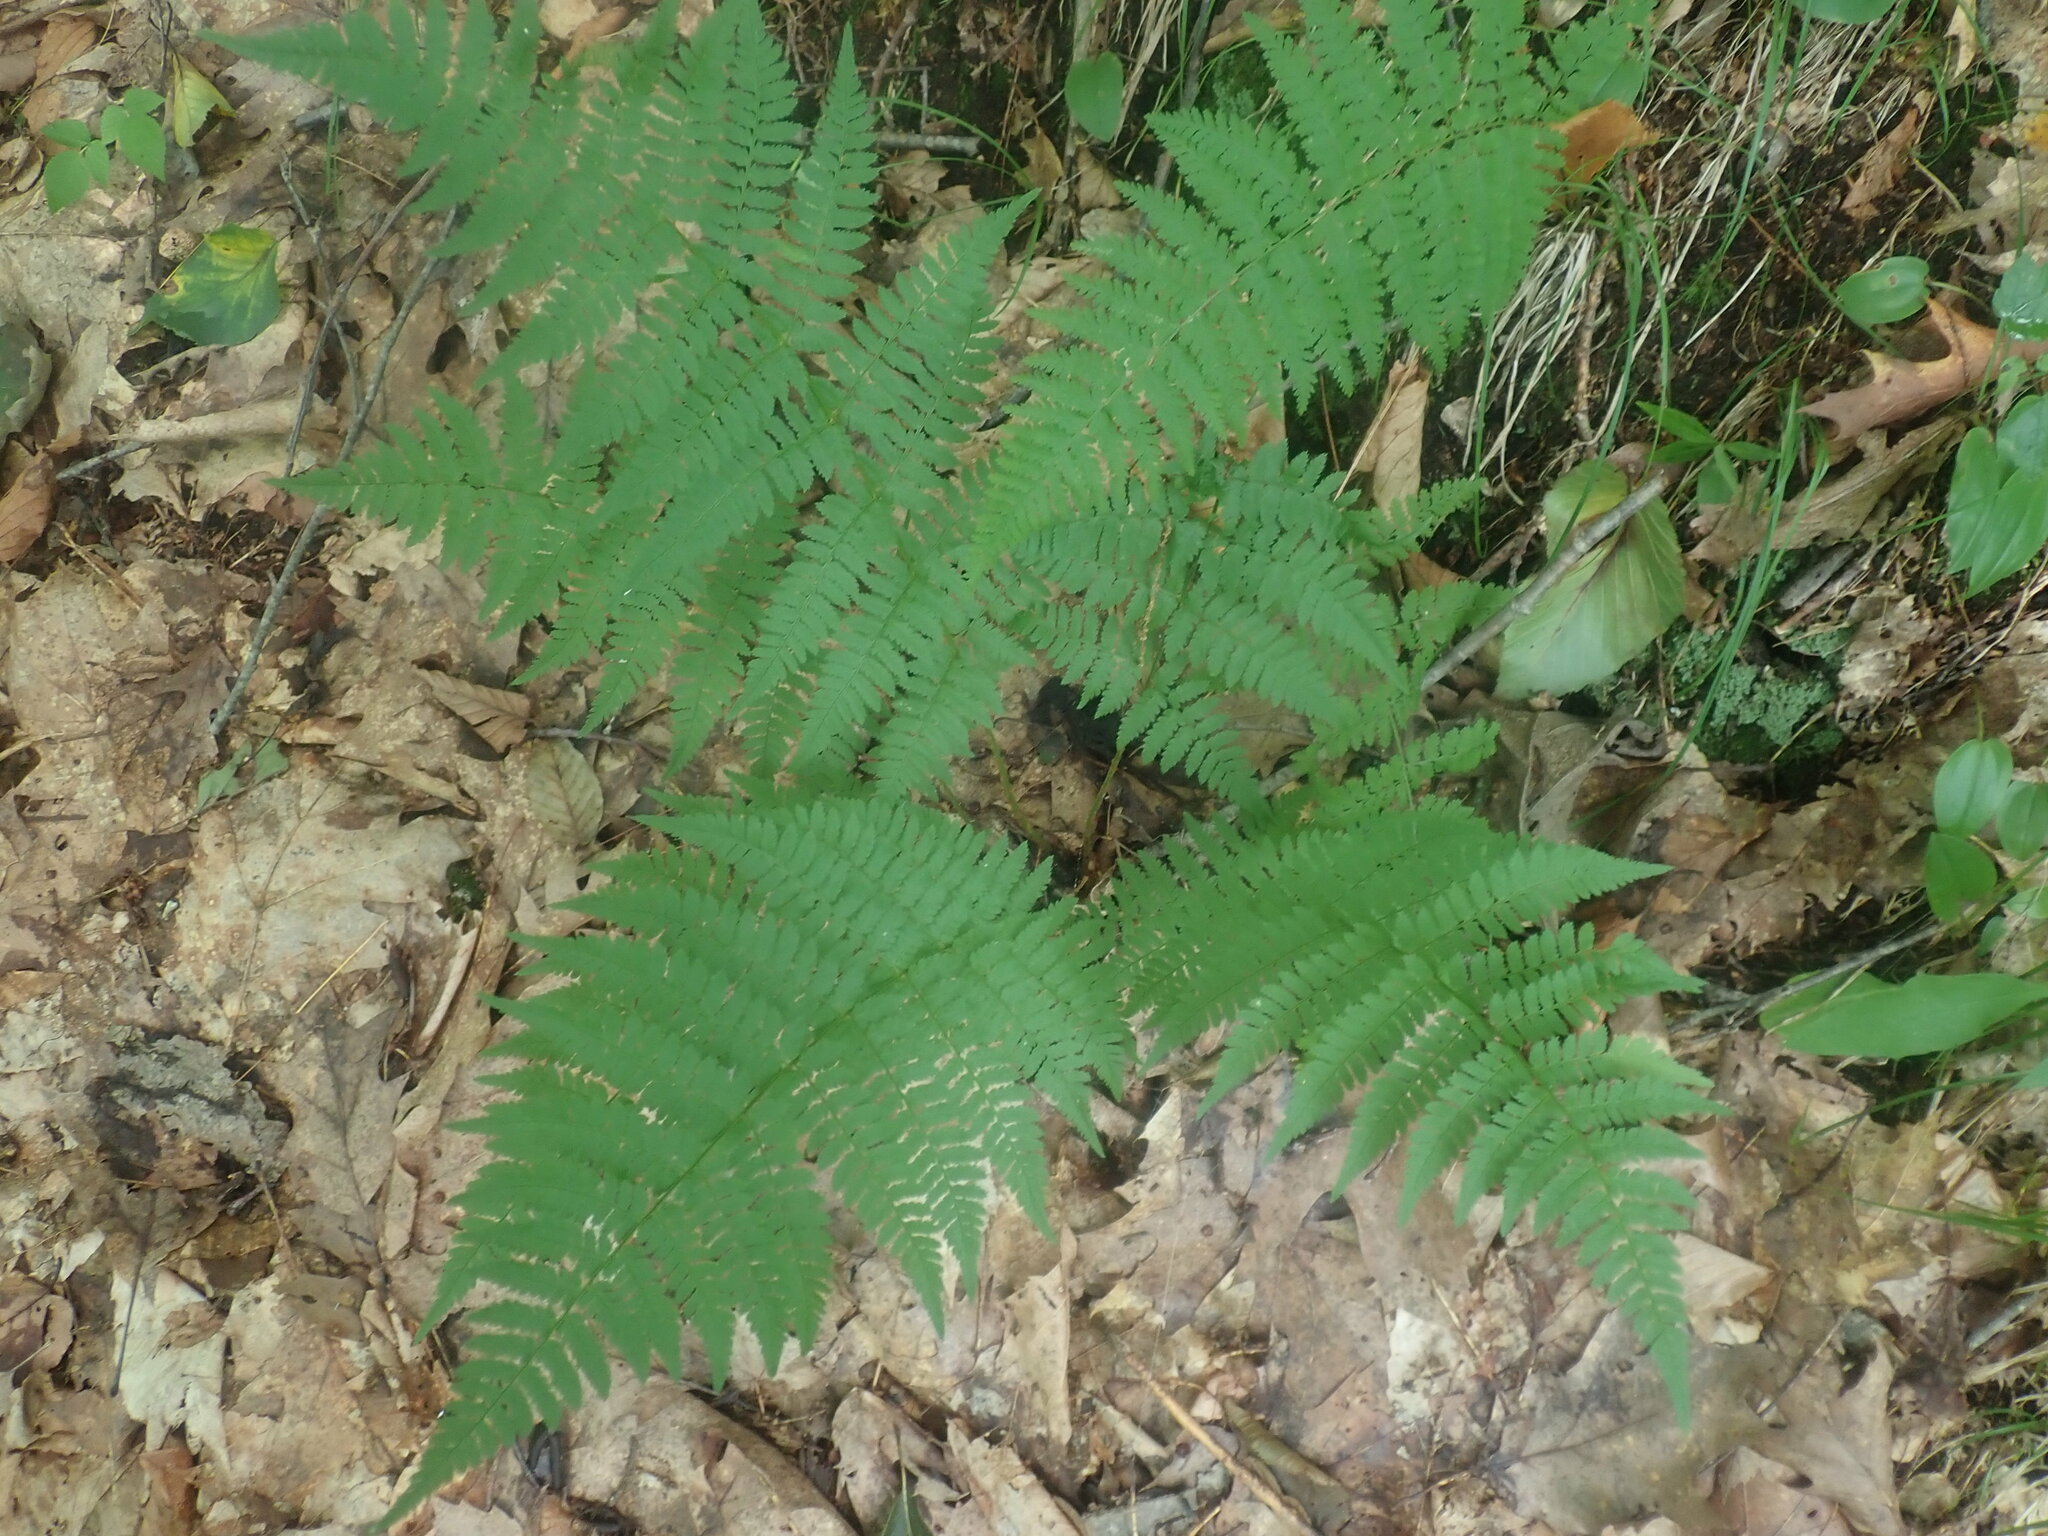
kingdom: Plantae
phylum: Tracheophyta
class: Polypodiopsida
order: Polypodiales
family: Dryopteridaceae
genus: Dryopteris
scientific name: Dryopteris intermedia
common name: Evergreen wood fern
